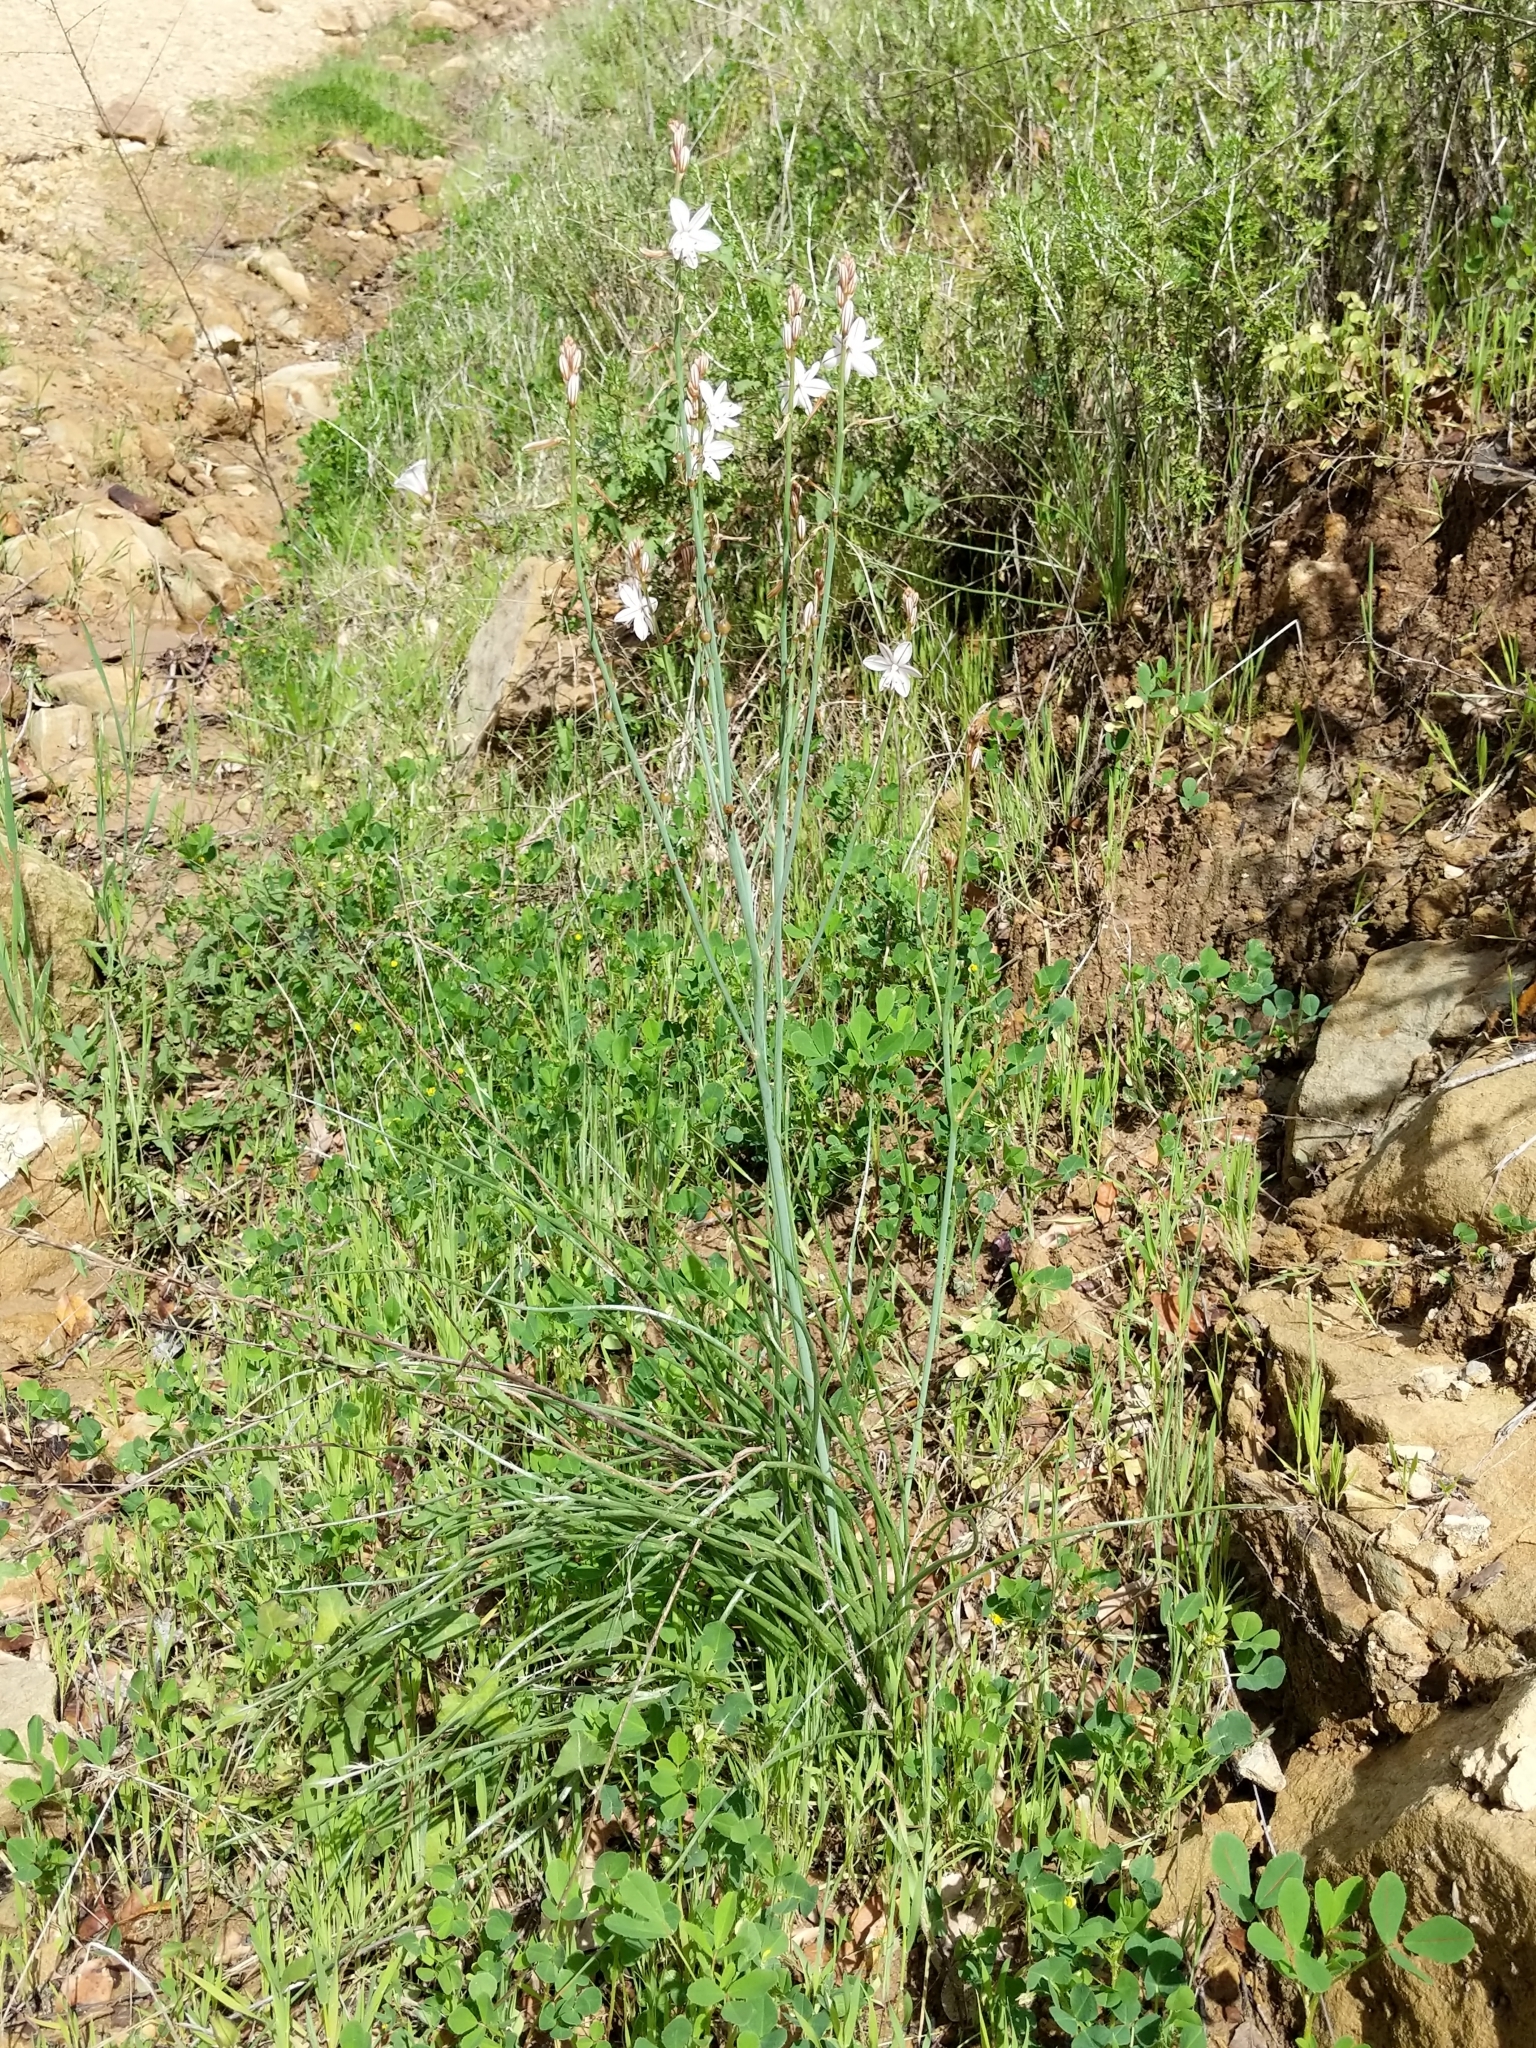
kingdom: Plantae
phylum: Tracheophyta
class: Liliopsida
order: Asparagales
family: Asphodelaceae
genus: Asphodelus
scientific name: Asphodelus fistulosus
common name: Onionweed
